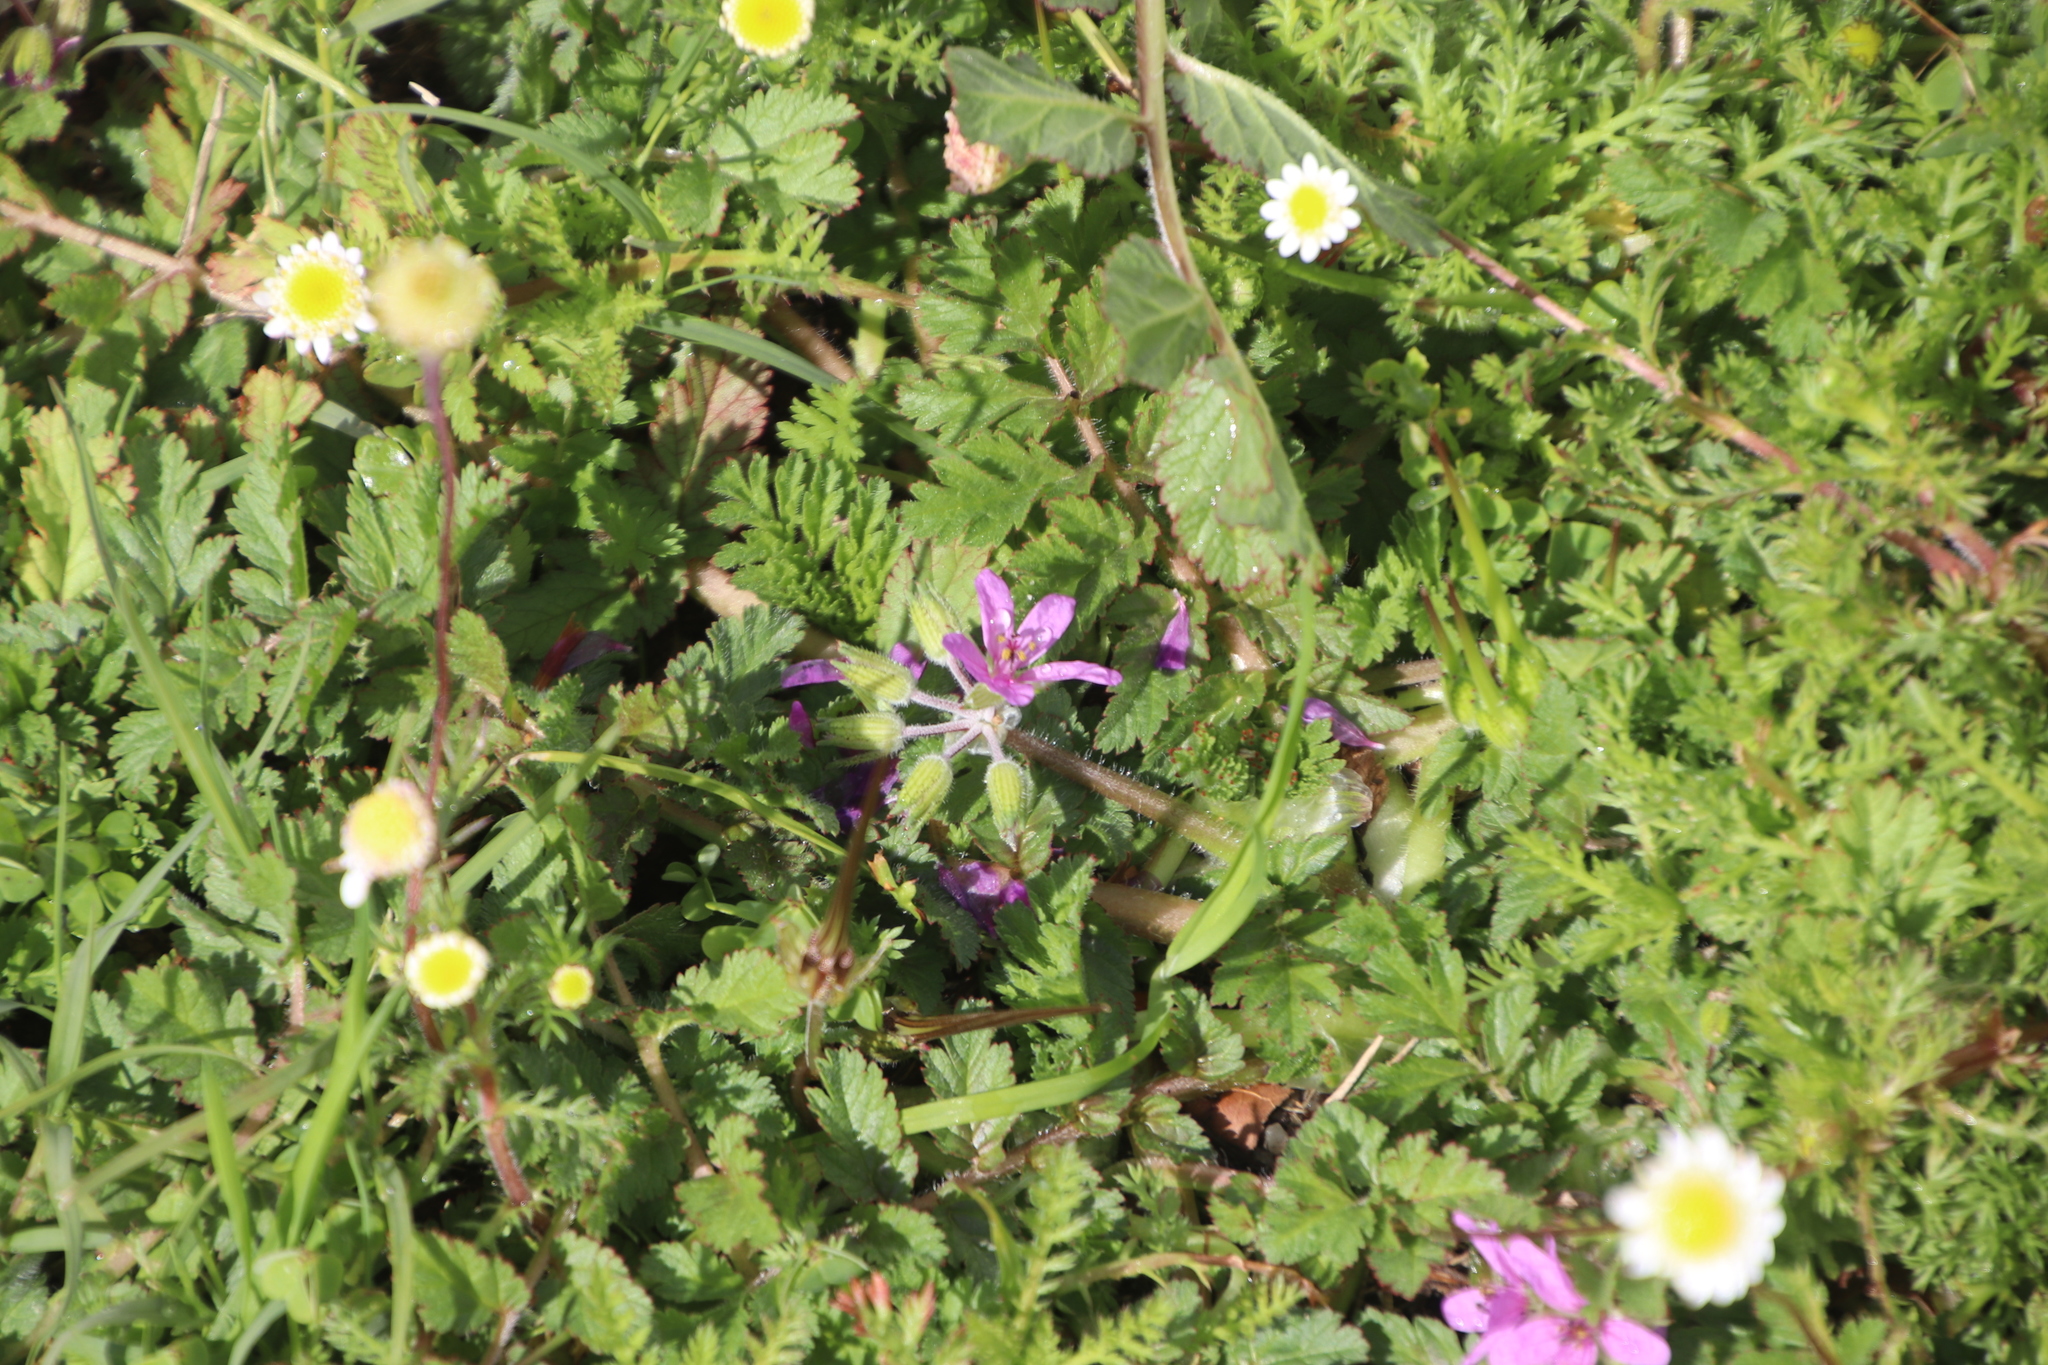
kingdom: Plantae
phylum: Tracheophyta
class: Magnoliopsida
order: Geraniales
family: Geraniaceae
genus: Erodium
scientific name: Erodium moschatum
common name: Musk stork's-bill
